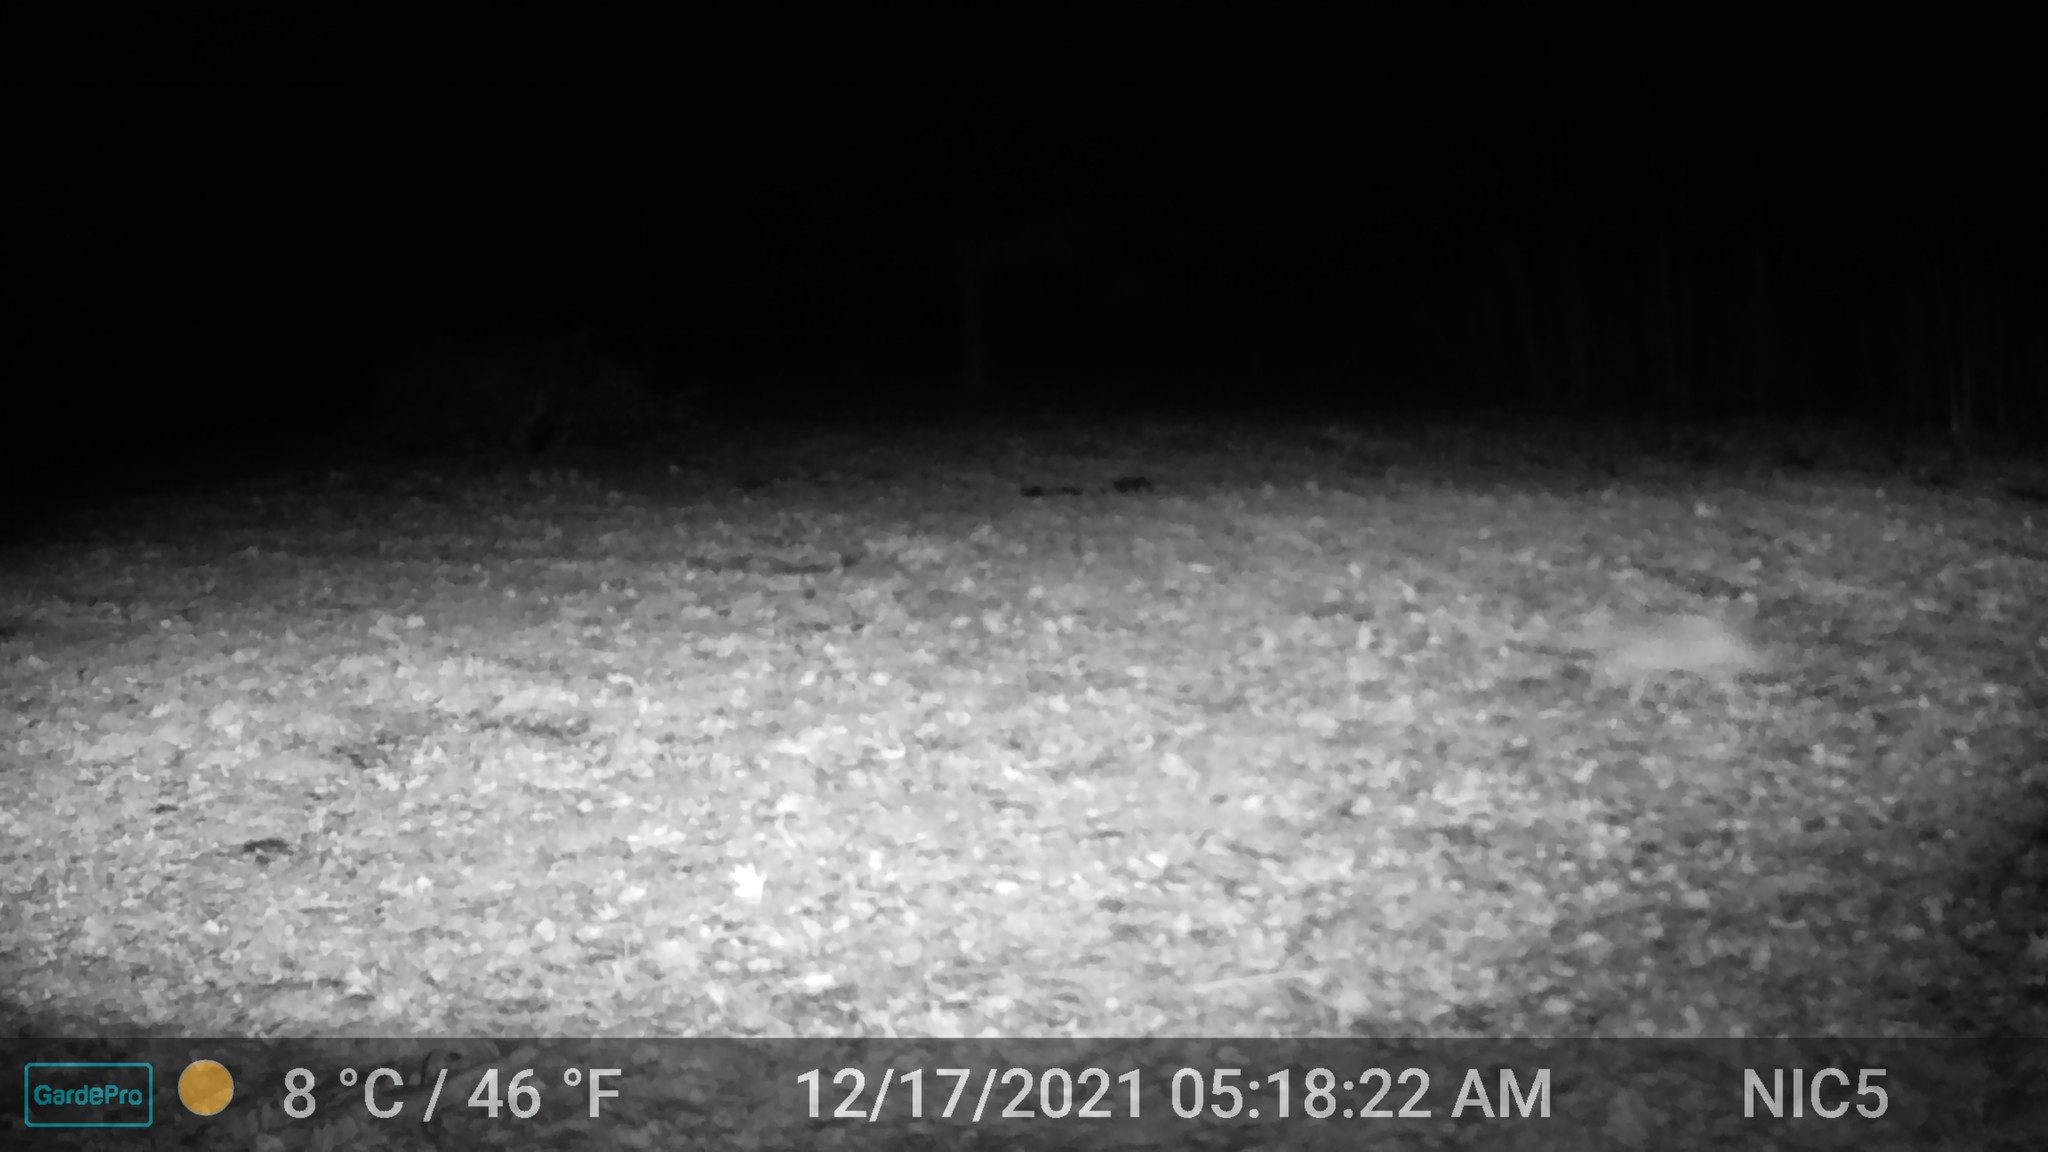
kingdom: Animalia
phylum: Chordata
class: Mammalia
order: Carnivora
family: Canidae
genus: Canis
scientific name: Canis latrans
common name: Coyote
